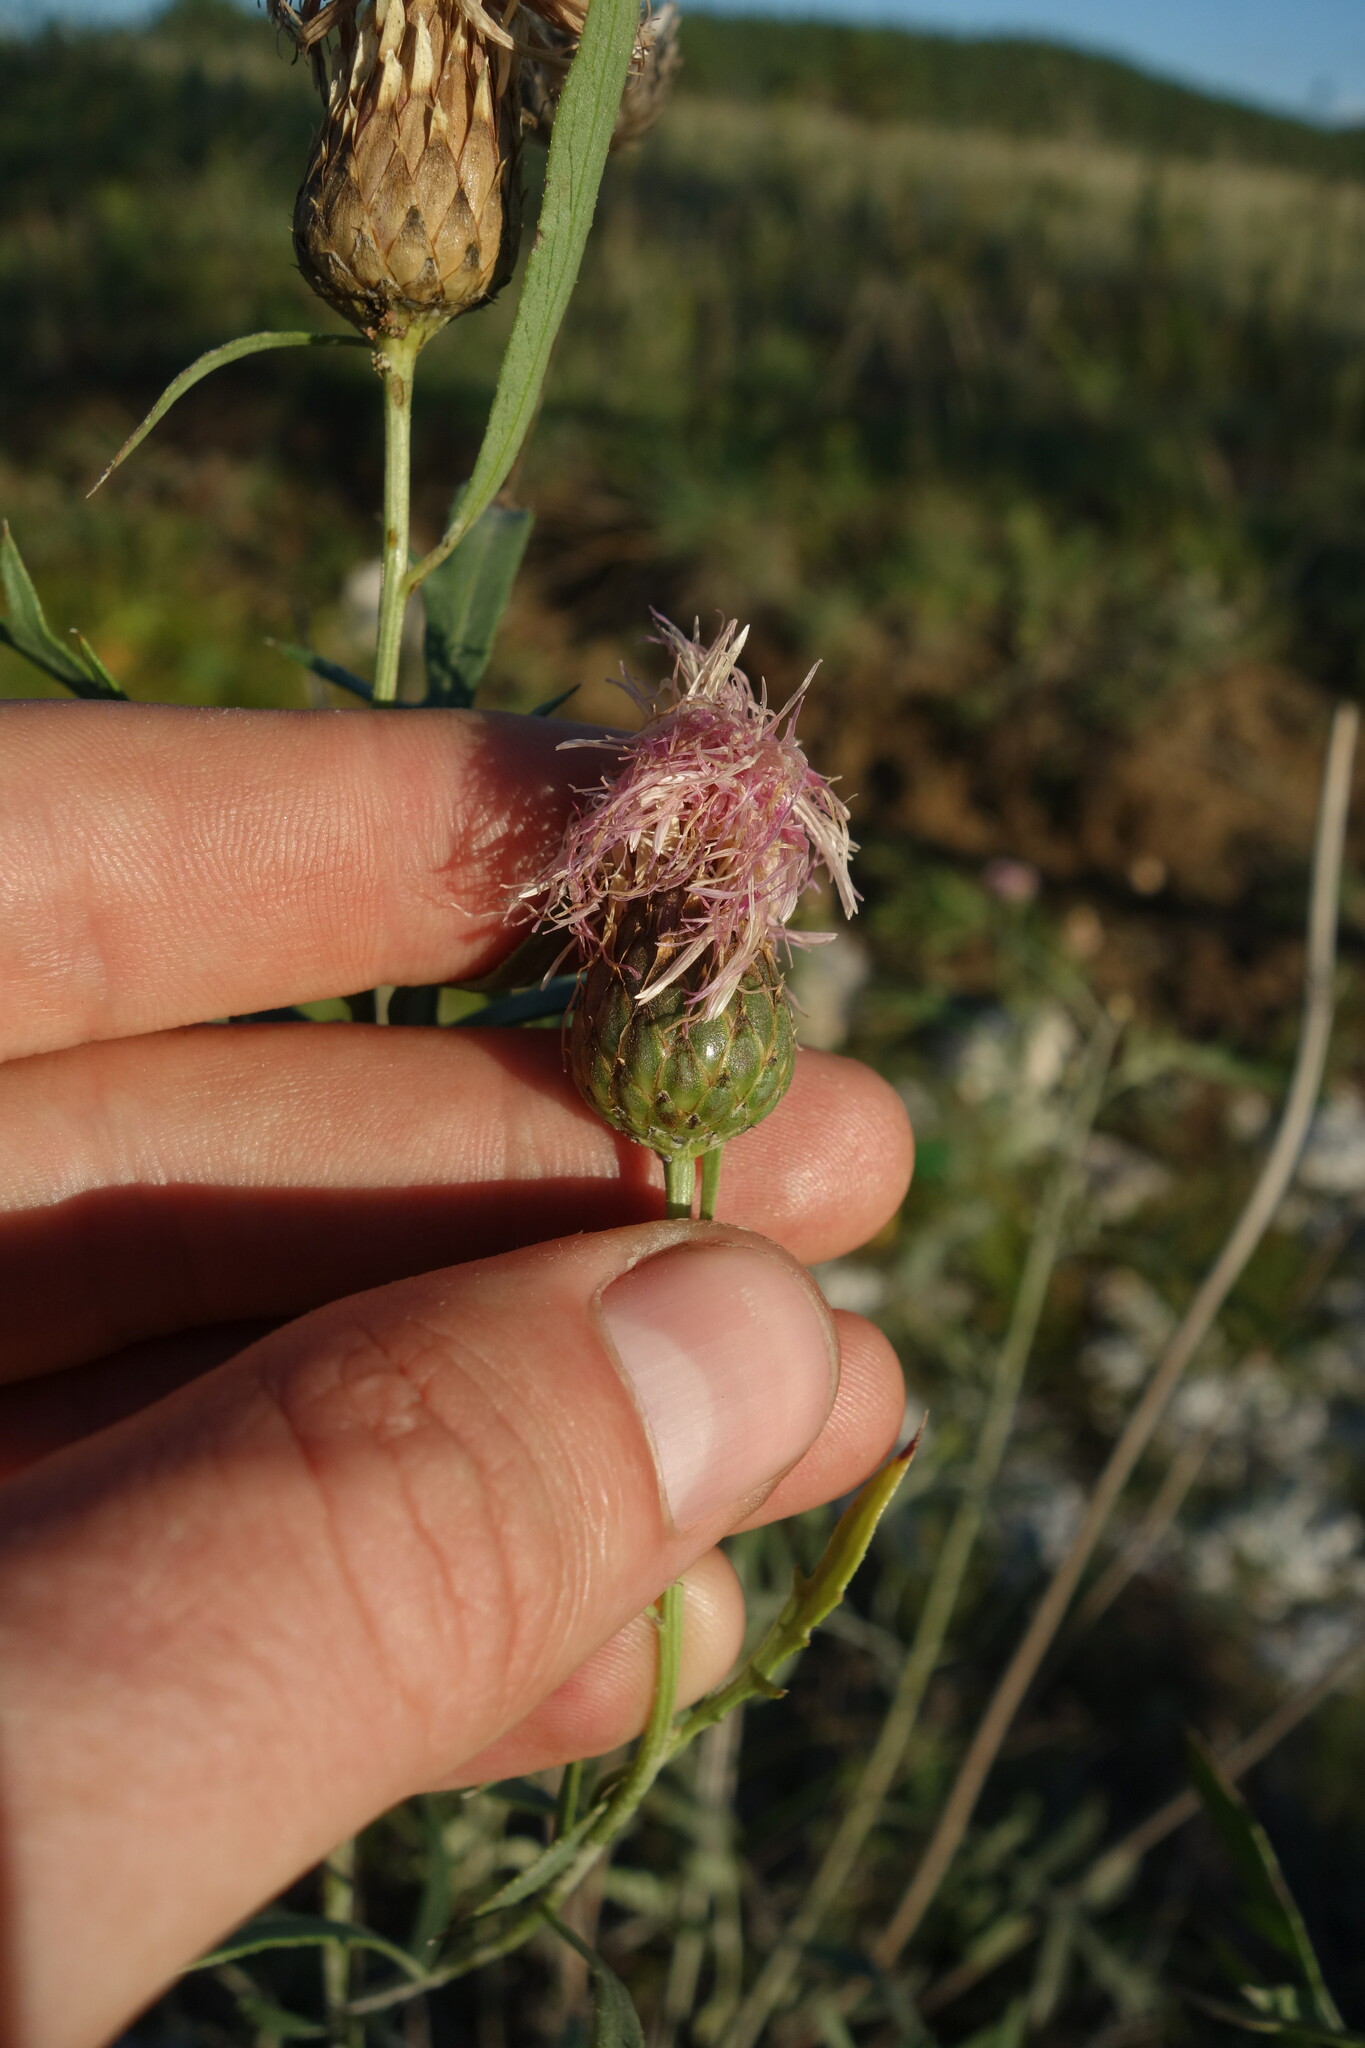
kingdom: Plantae
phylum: Tracheophyta
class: Magnoliopsida
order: Asterales
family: Asteraceae
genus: Klasea
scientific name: Klasea centauroides
